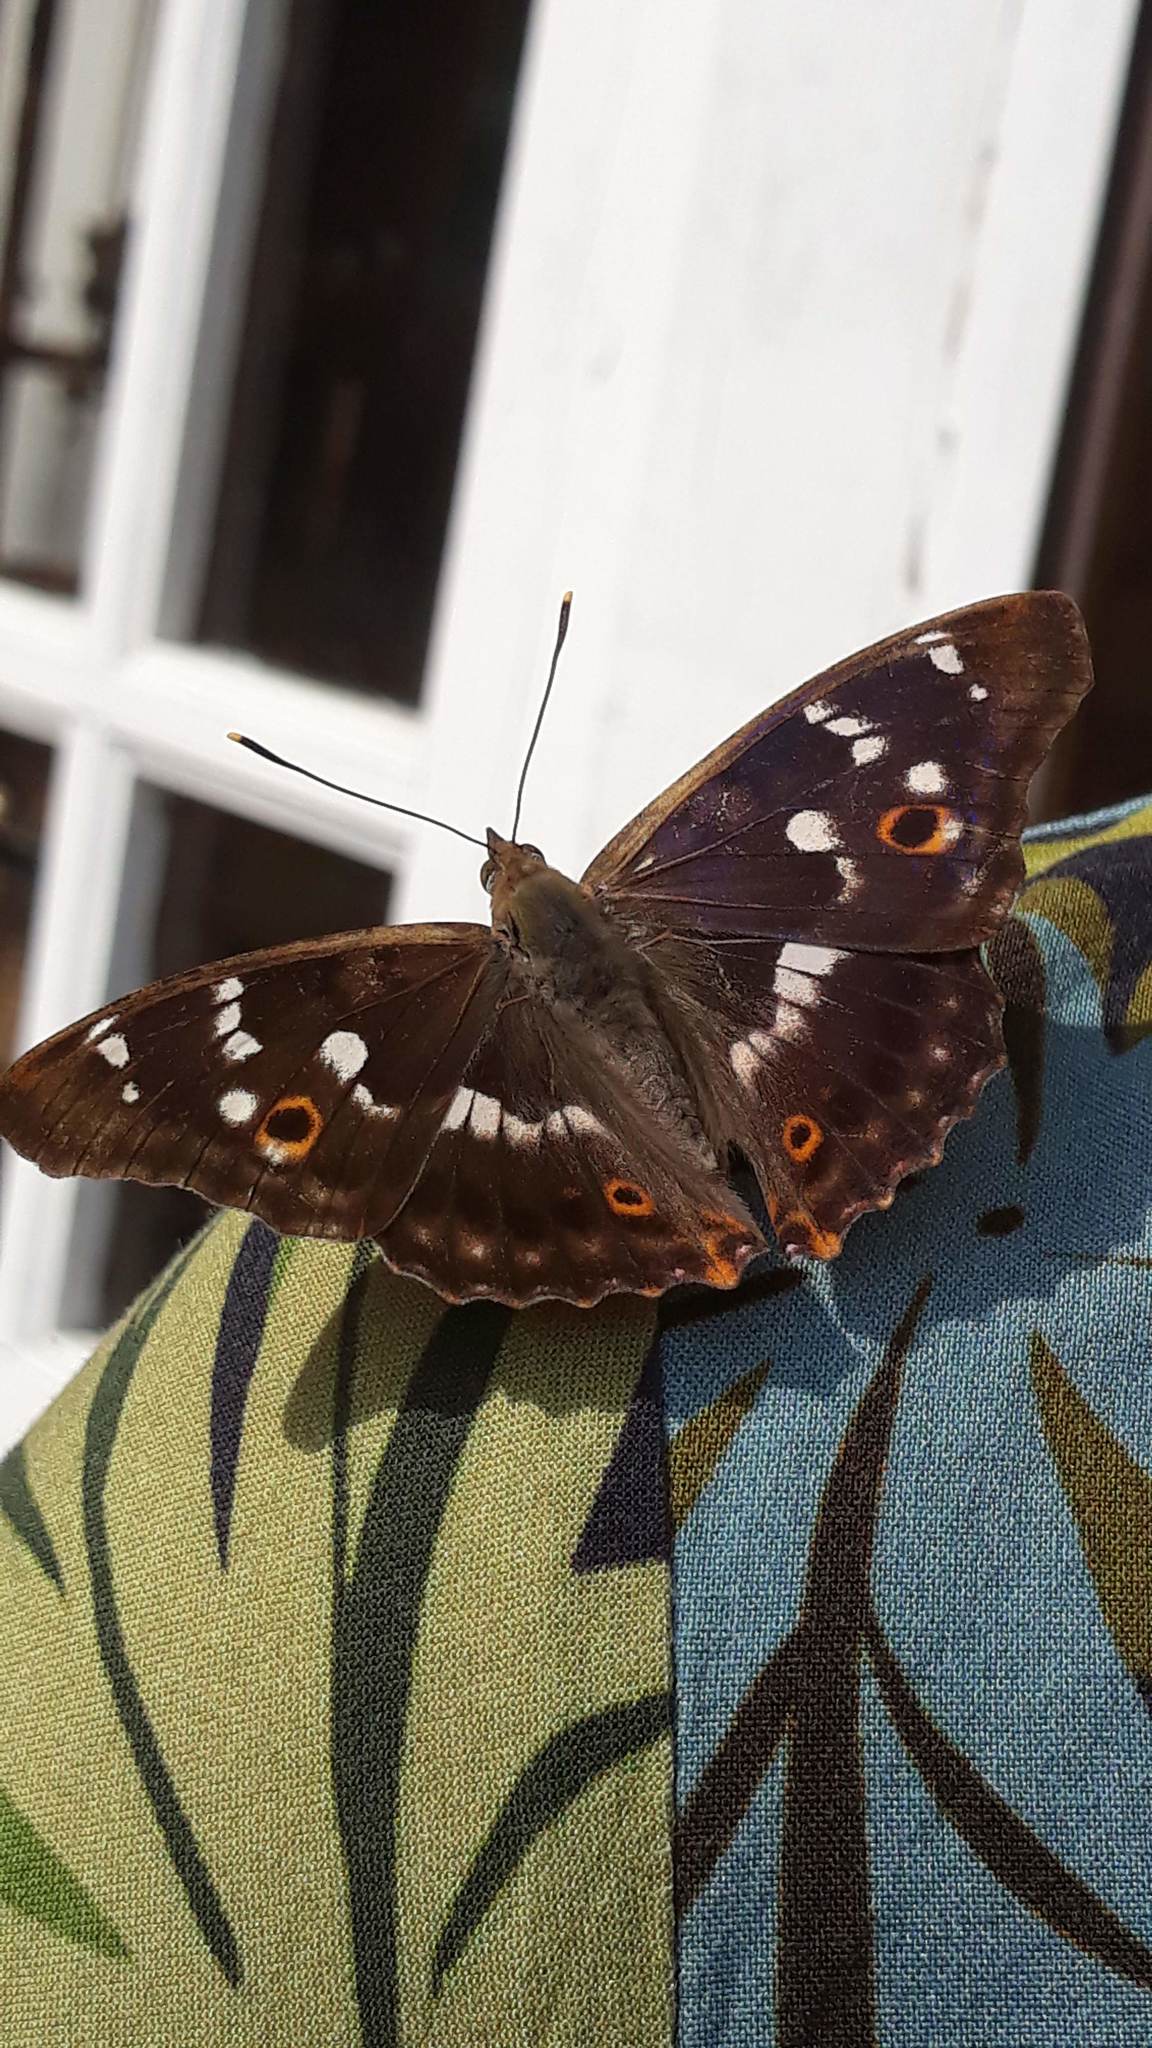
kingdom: Animalia
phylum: Arthropoda
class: Insecta
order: Lepidoptera
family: Nymphalidae
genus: Apatura
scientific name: Apatura ilia
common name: Lesser purple emperor
